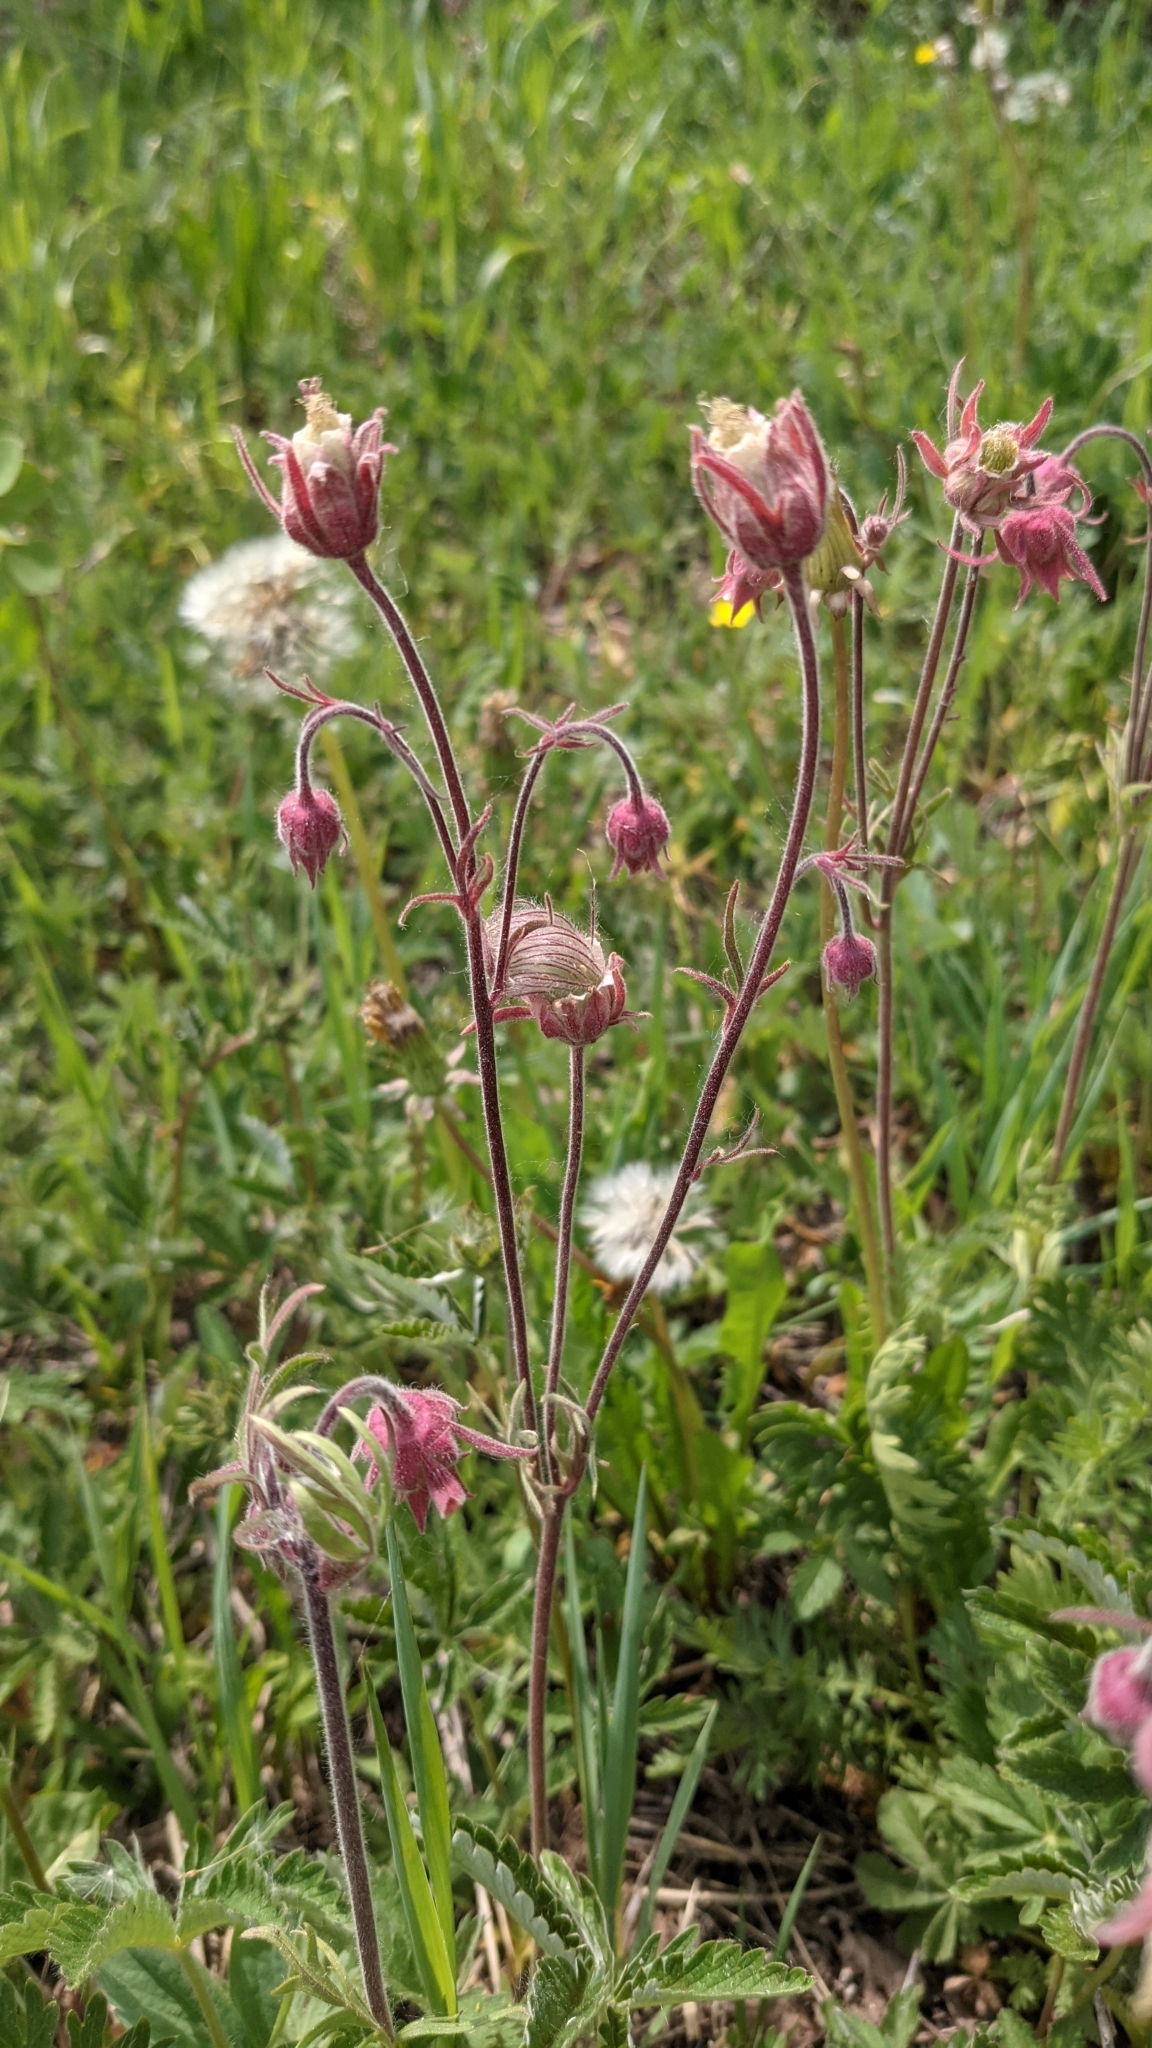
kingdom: Plantae
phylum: Tracheophyta
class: Magnoliopsida
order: Rosales
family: Rosaceae
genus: Geum
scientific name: Geum triflorum
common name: Old man's whiskers
